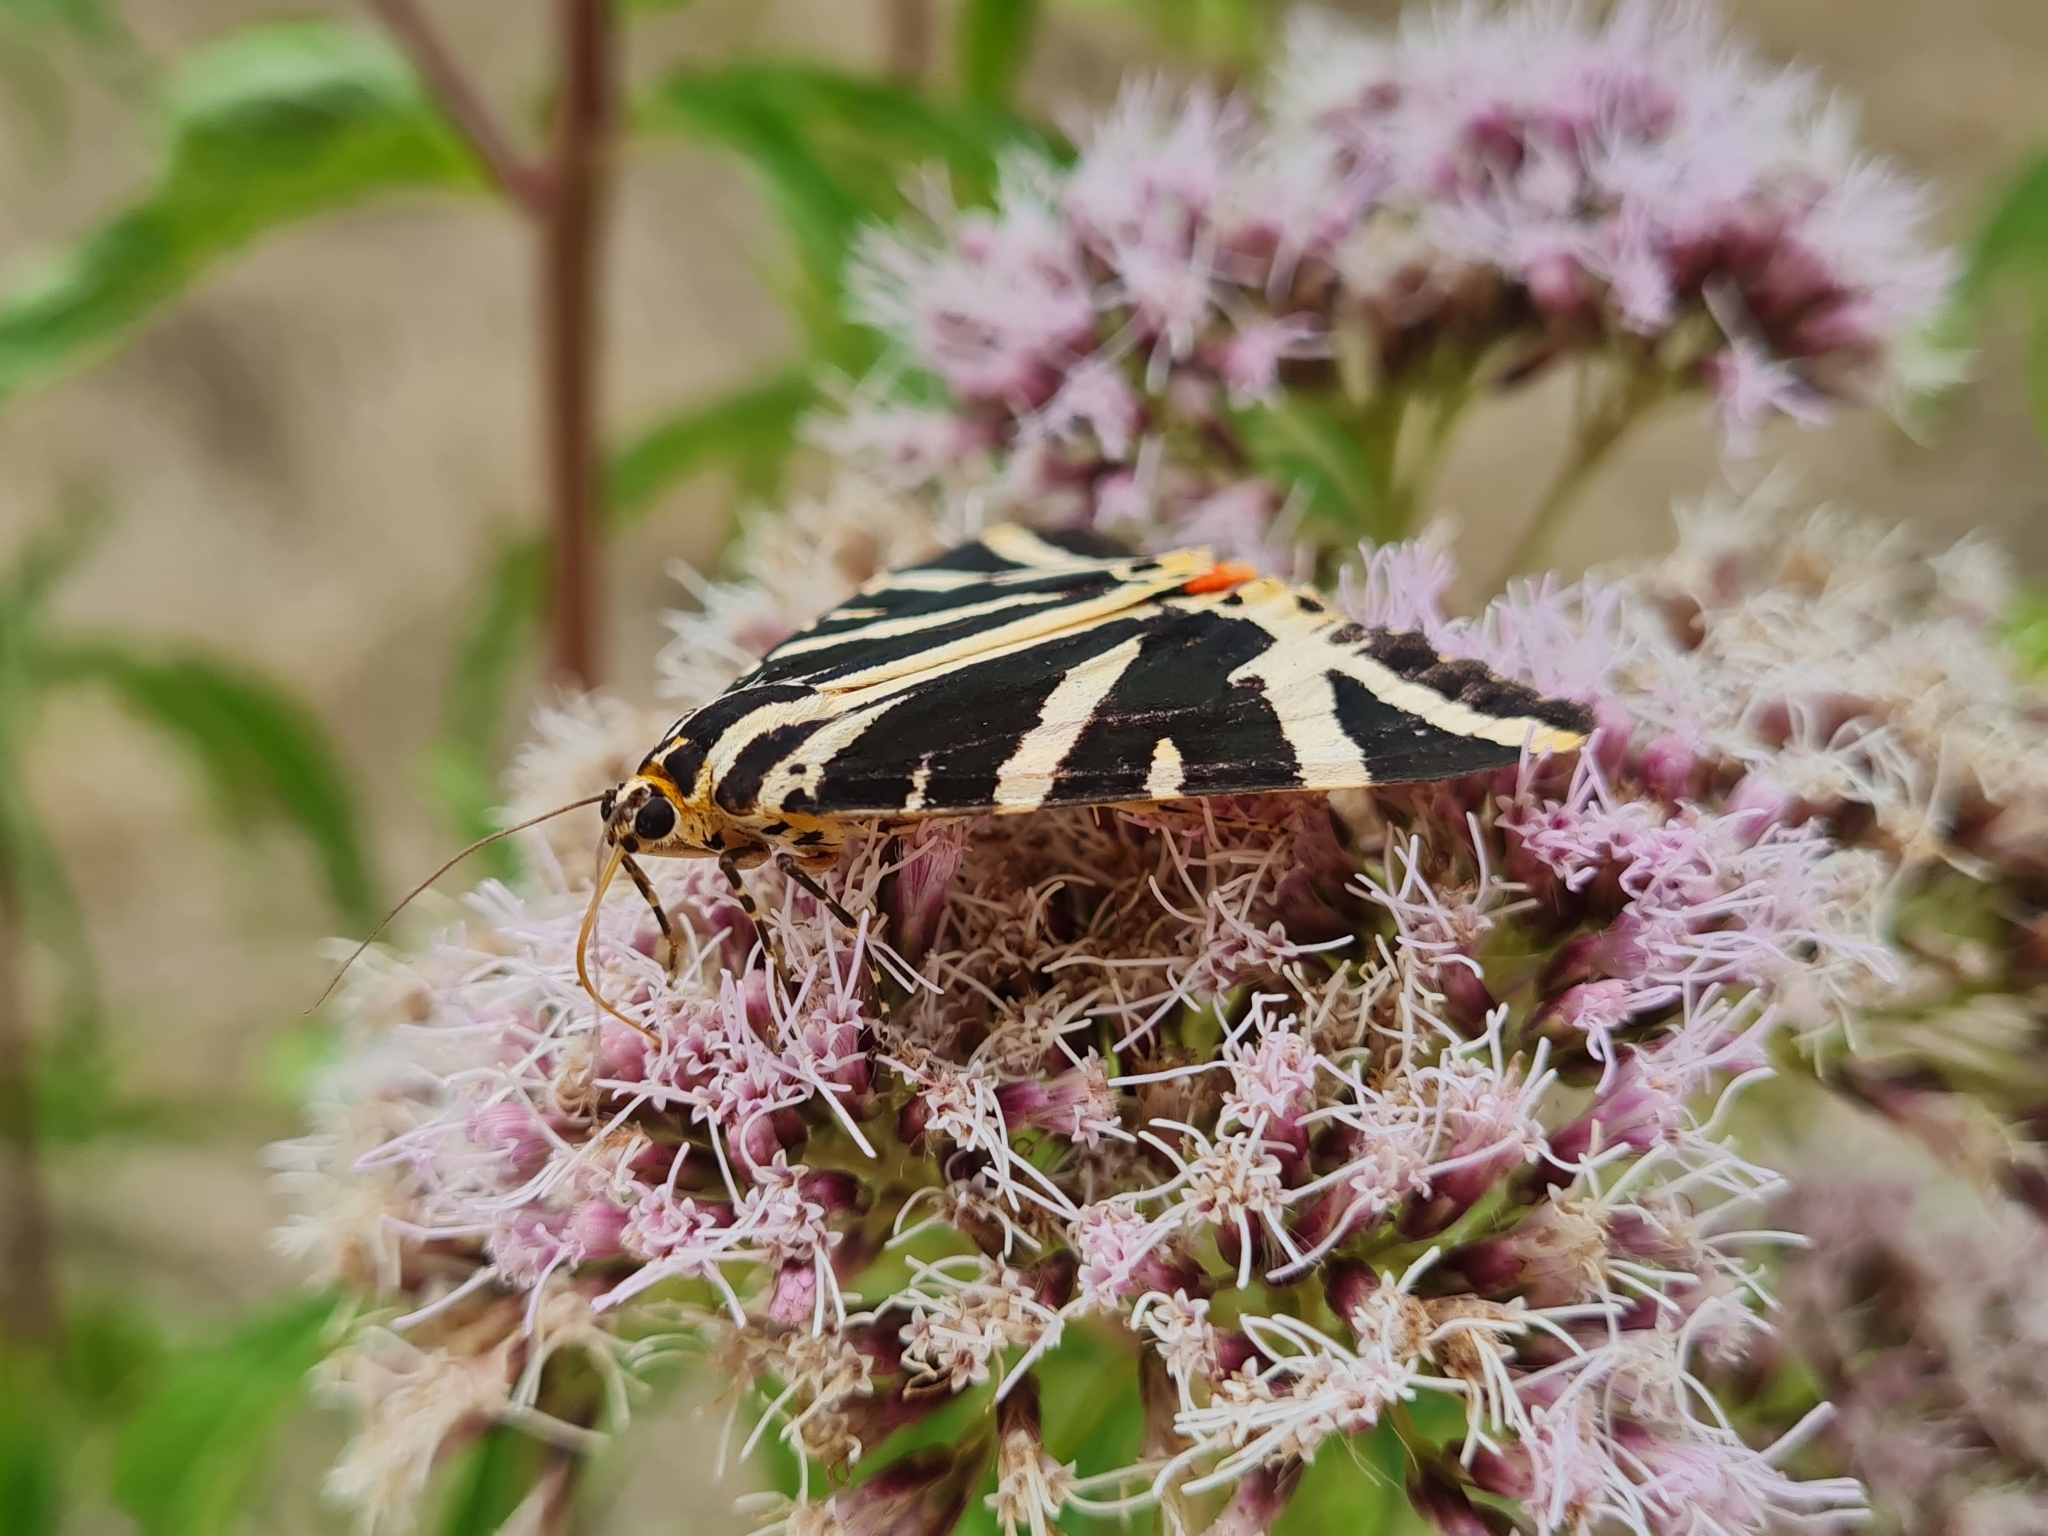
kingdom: Animalia
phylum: Arthropoda
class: Insecta
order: Lepidoptera
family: Erebidae
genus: Euplagia
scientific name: Euplagia quadripunctaria
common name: Jersey tiger
